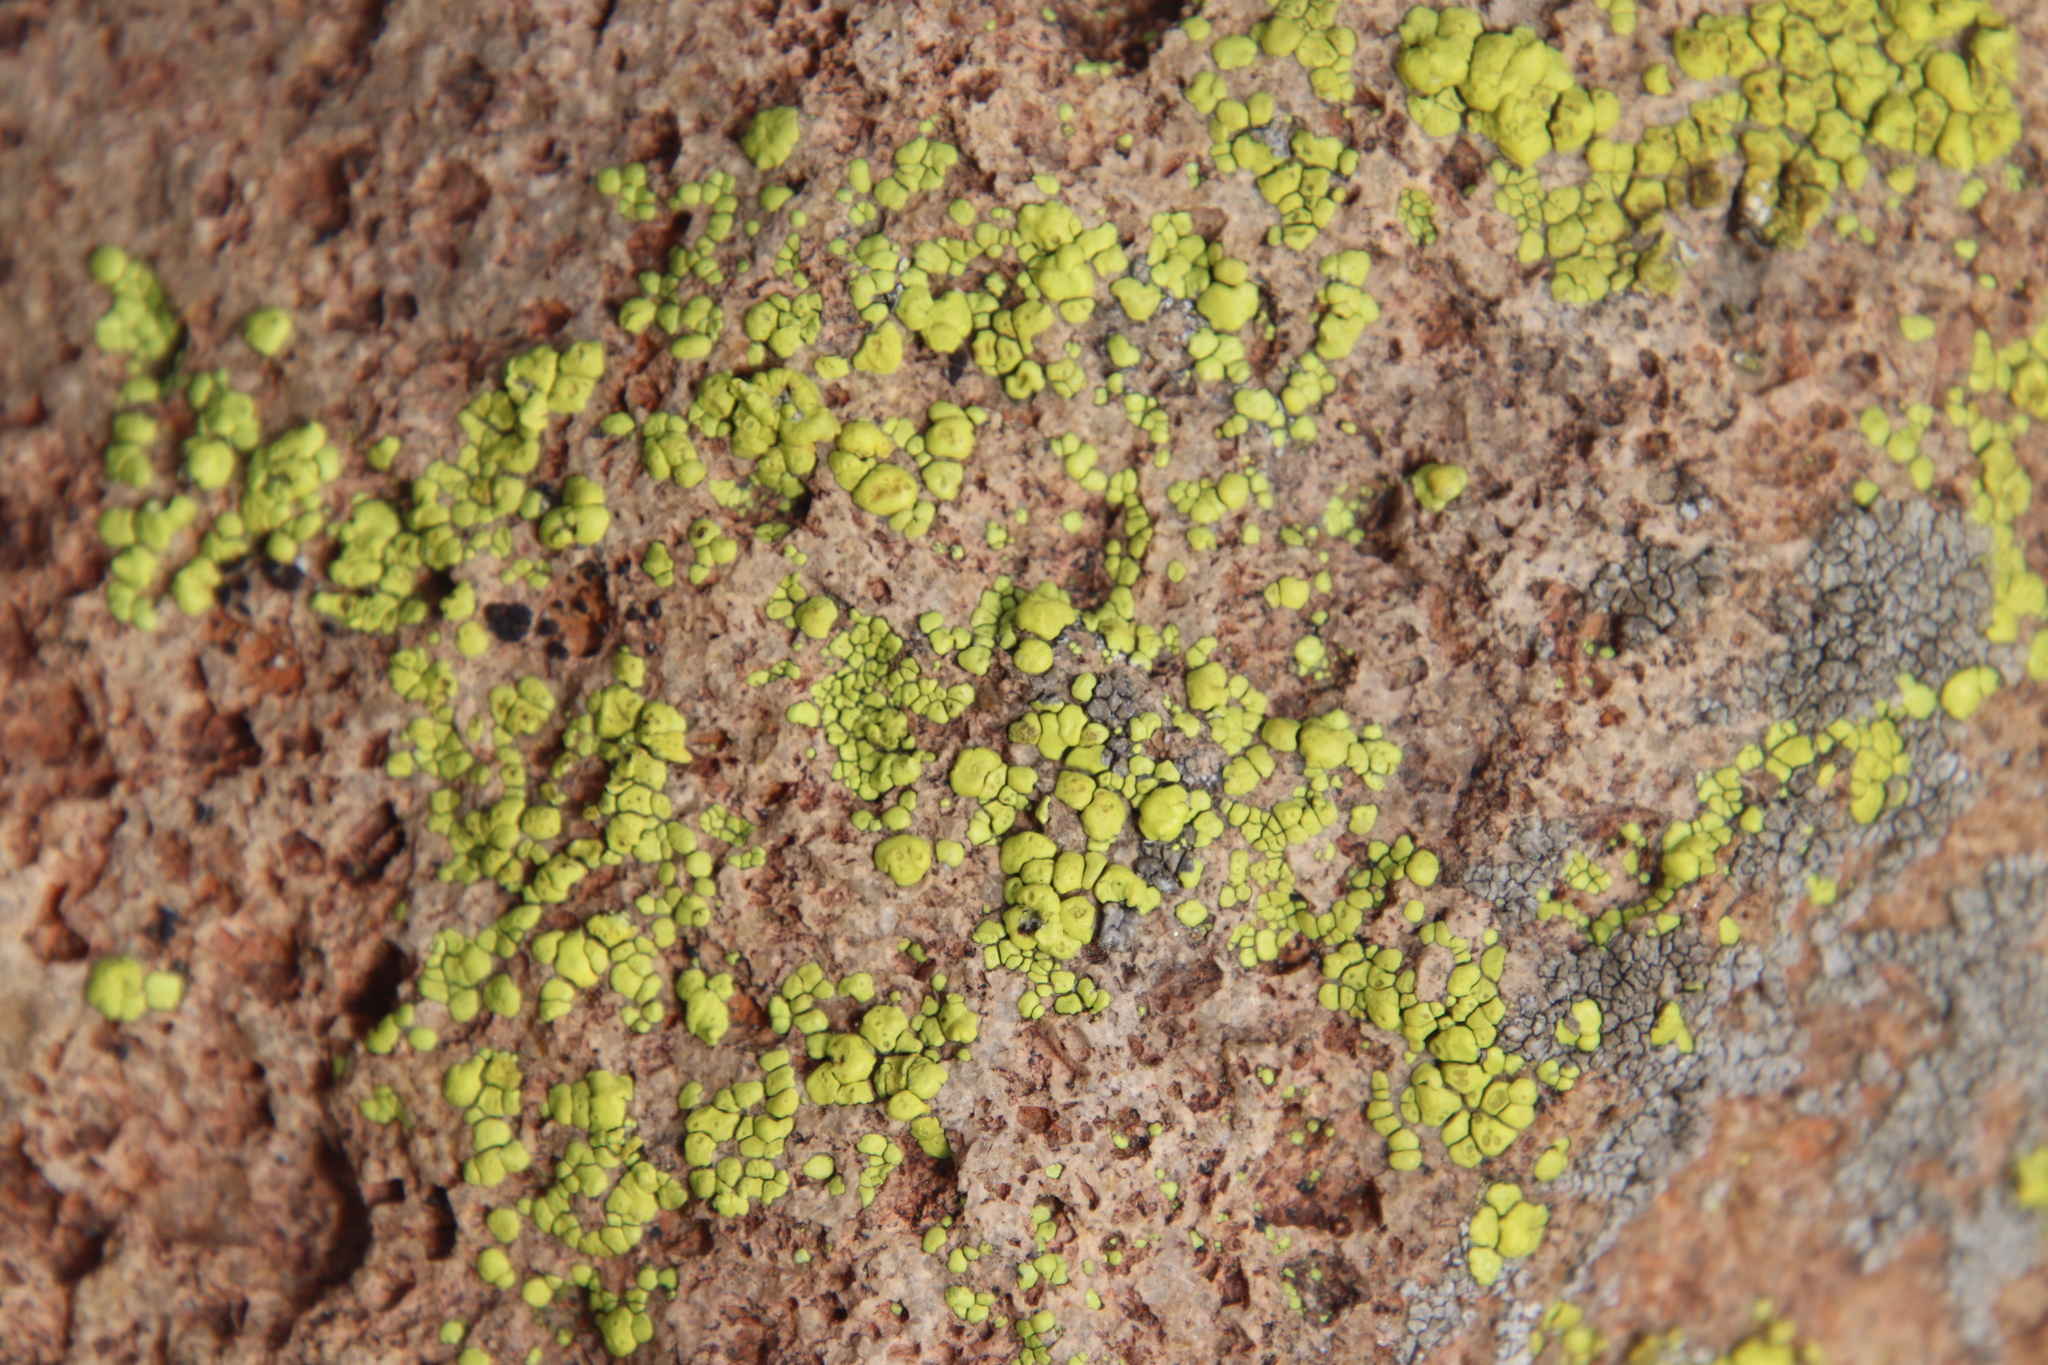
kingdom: Fungi
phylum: Ascomycota
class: Lecanoromycetes
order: Acarosporales
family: Acarosporaceae
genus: Acarospora
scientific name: Acarospora socialis
